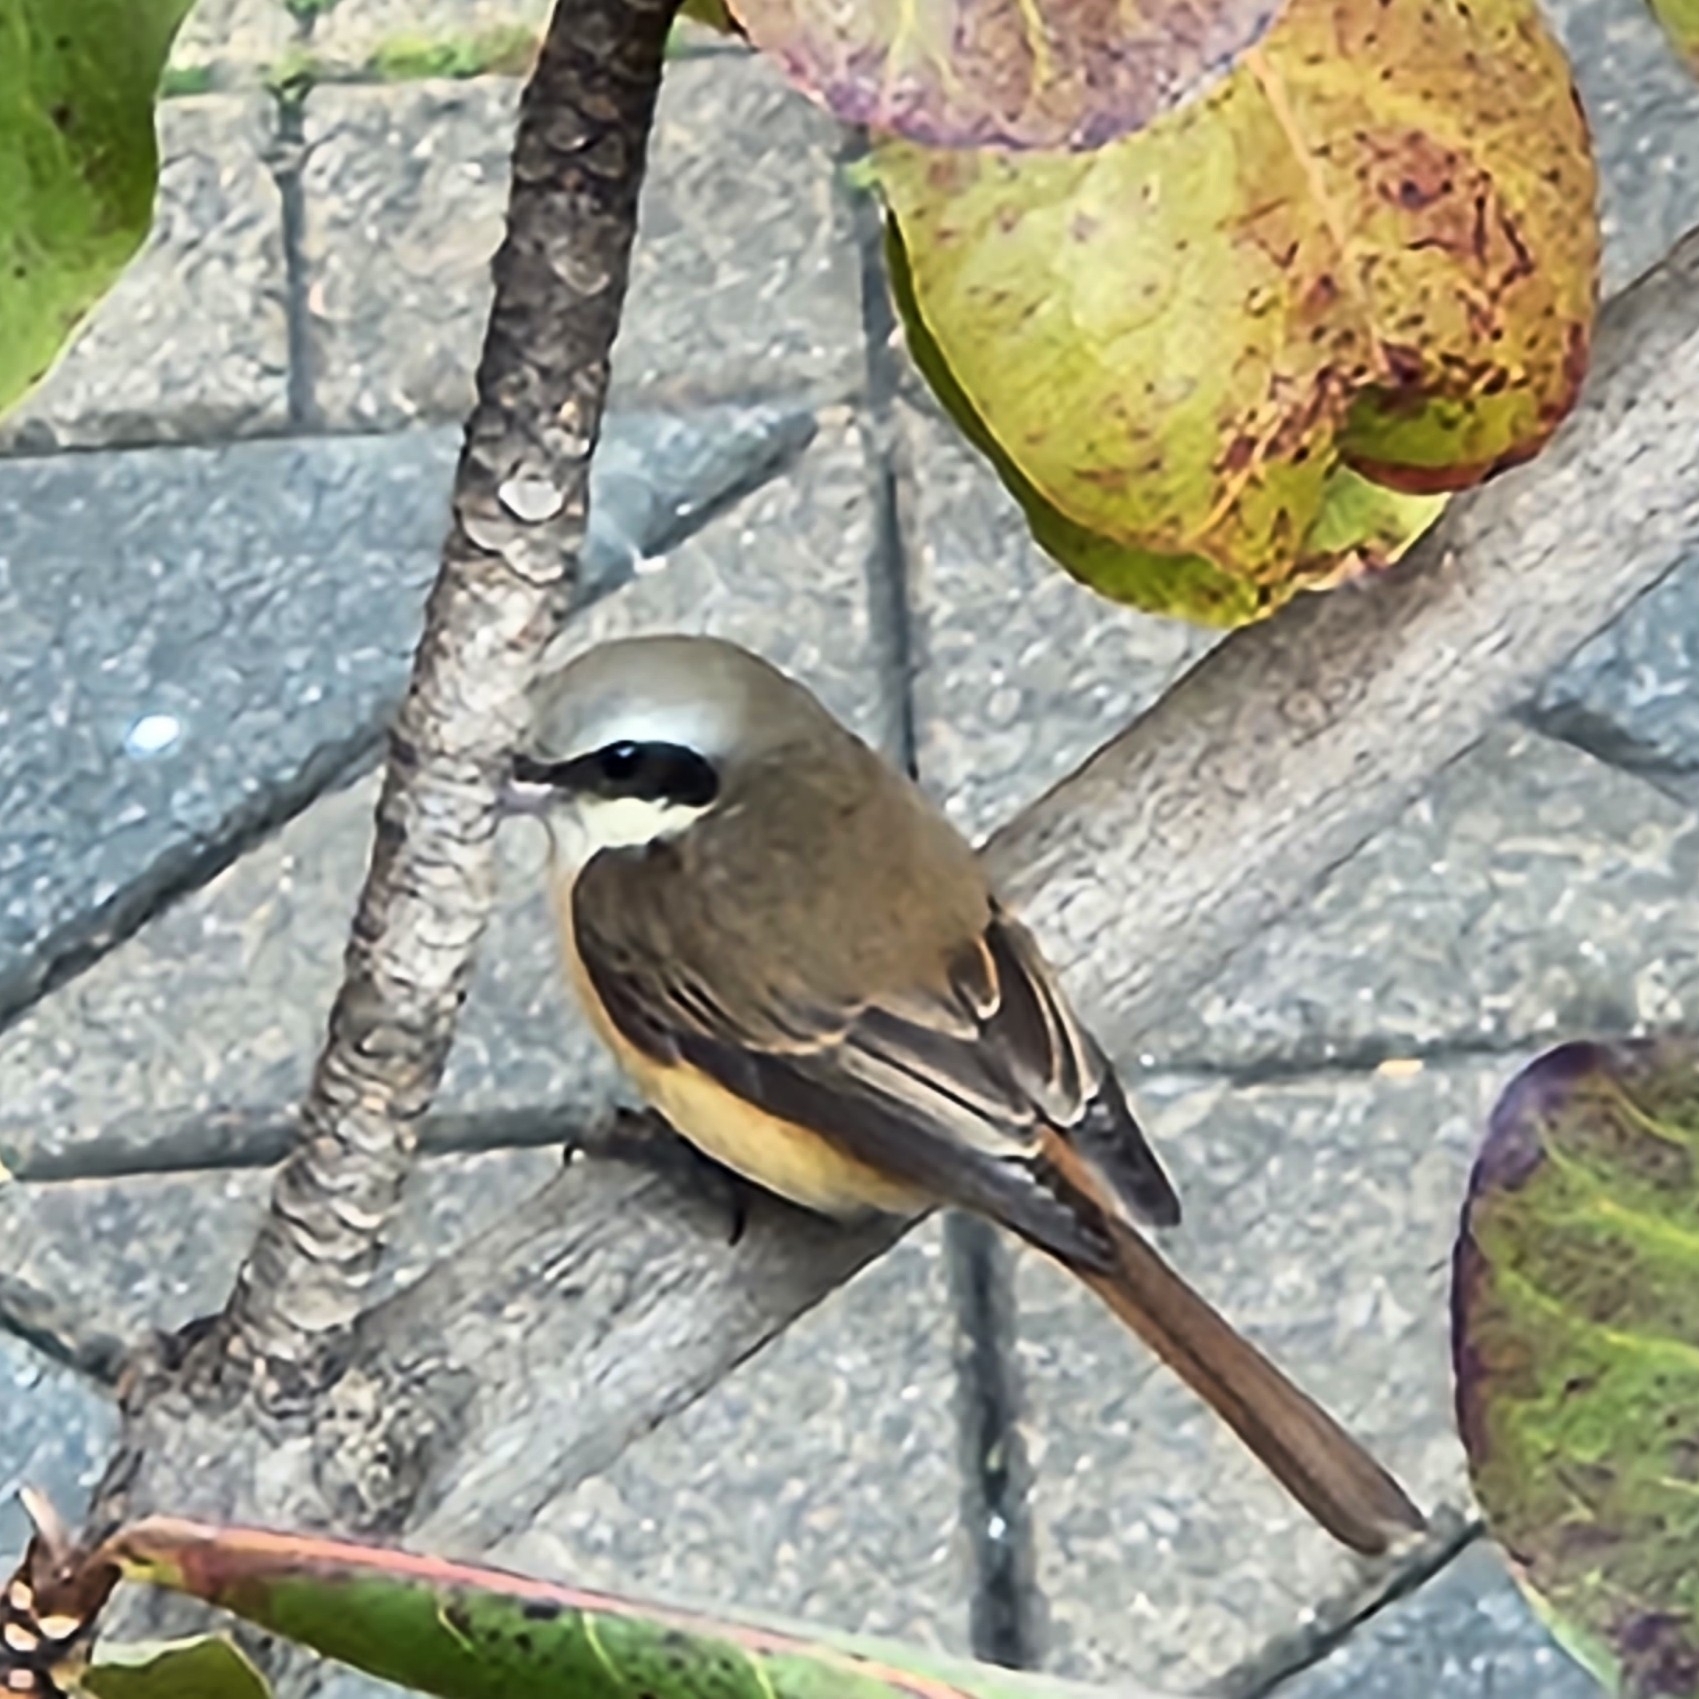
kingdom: Animalia
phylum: Chordata
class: Aves
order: Passeriformes
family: Laniidae
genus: Lanius
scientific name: Lanius cristatus
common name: Brown shrike
